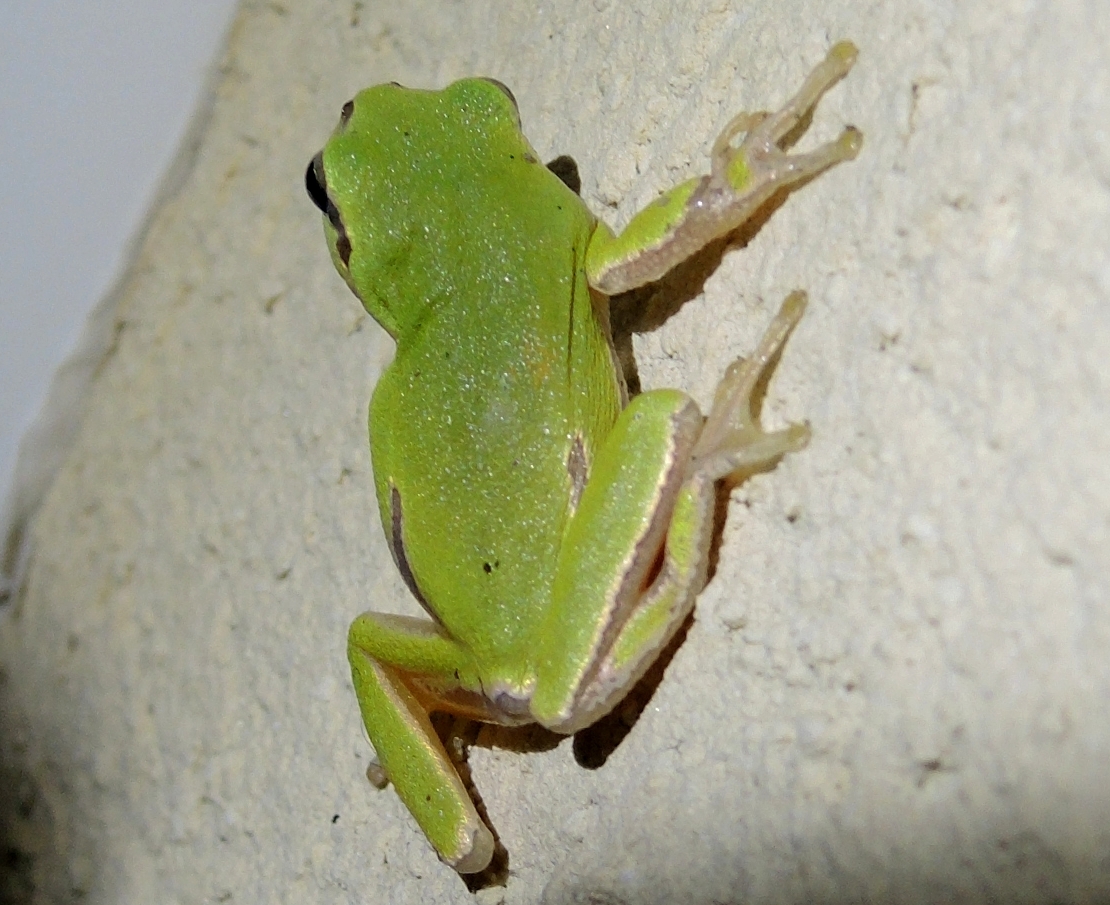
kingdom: Animalia
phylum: Chordata
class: Amphibia
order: Anura
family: Hylidae
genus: Hyla
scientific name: Hyla orientalis
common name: Caucasian treefrog
